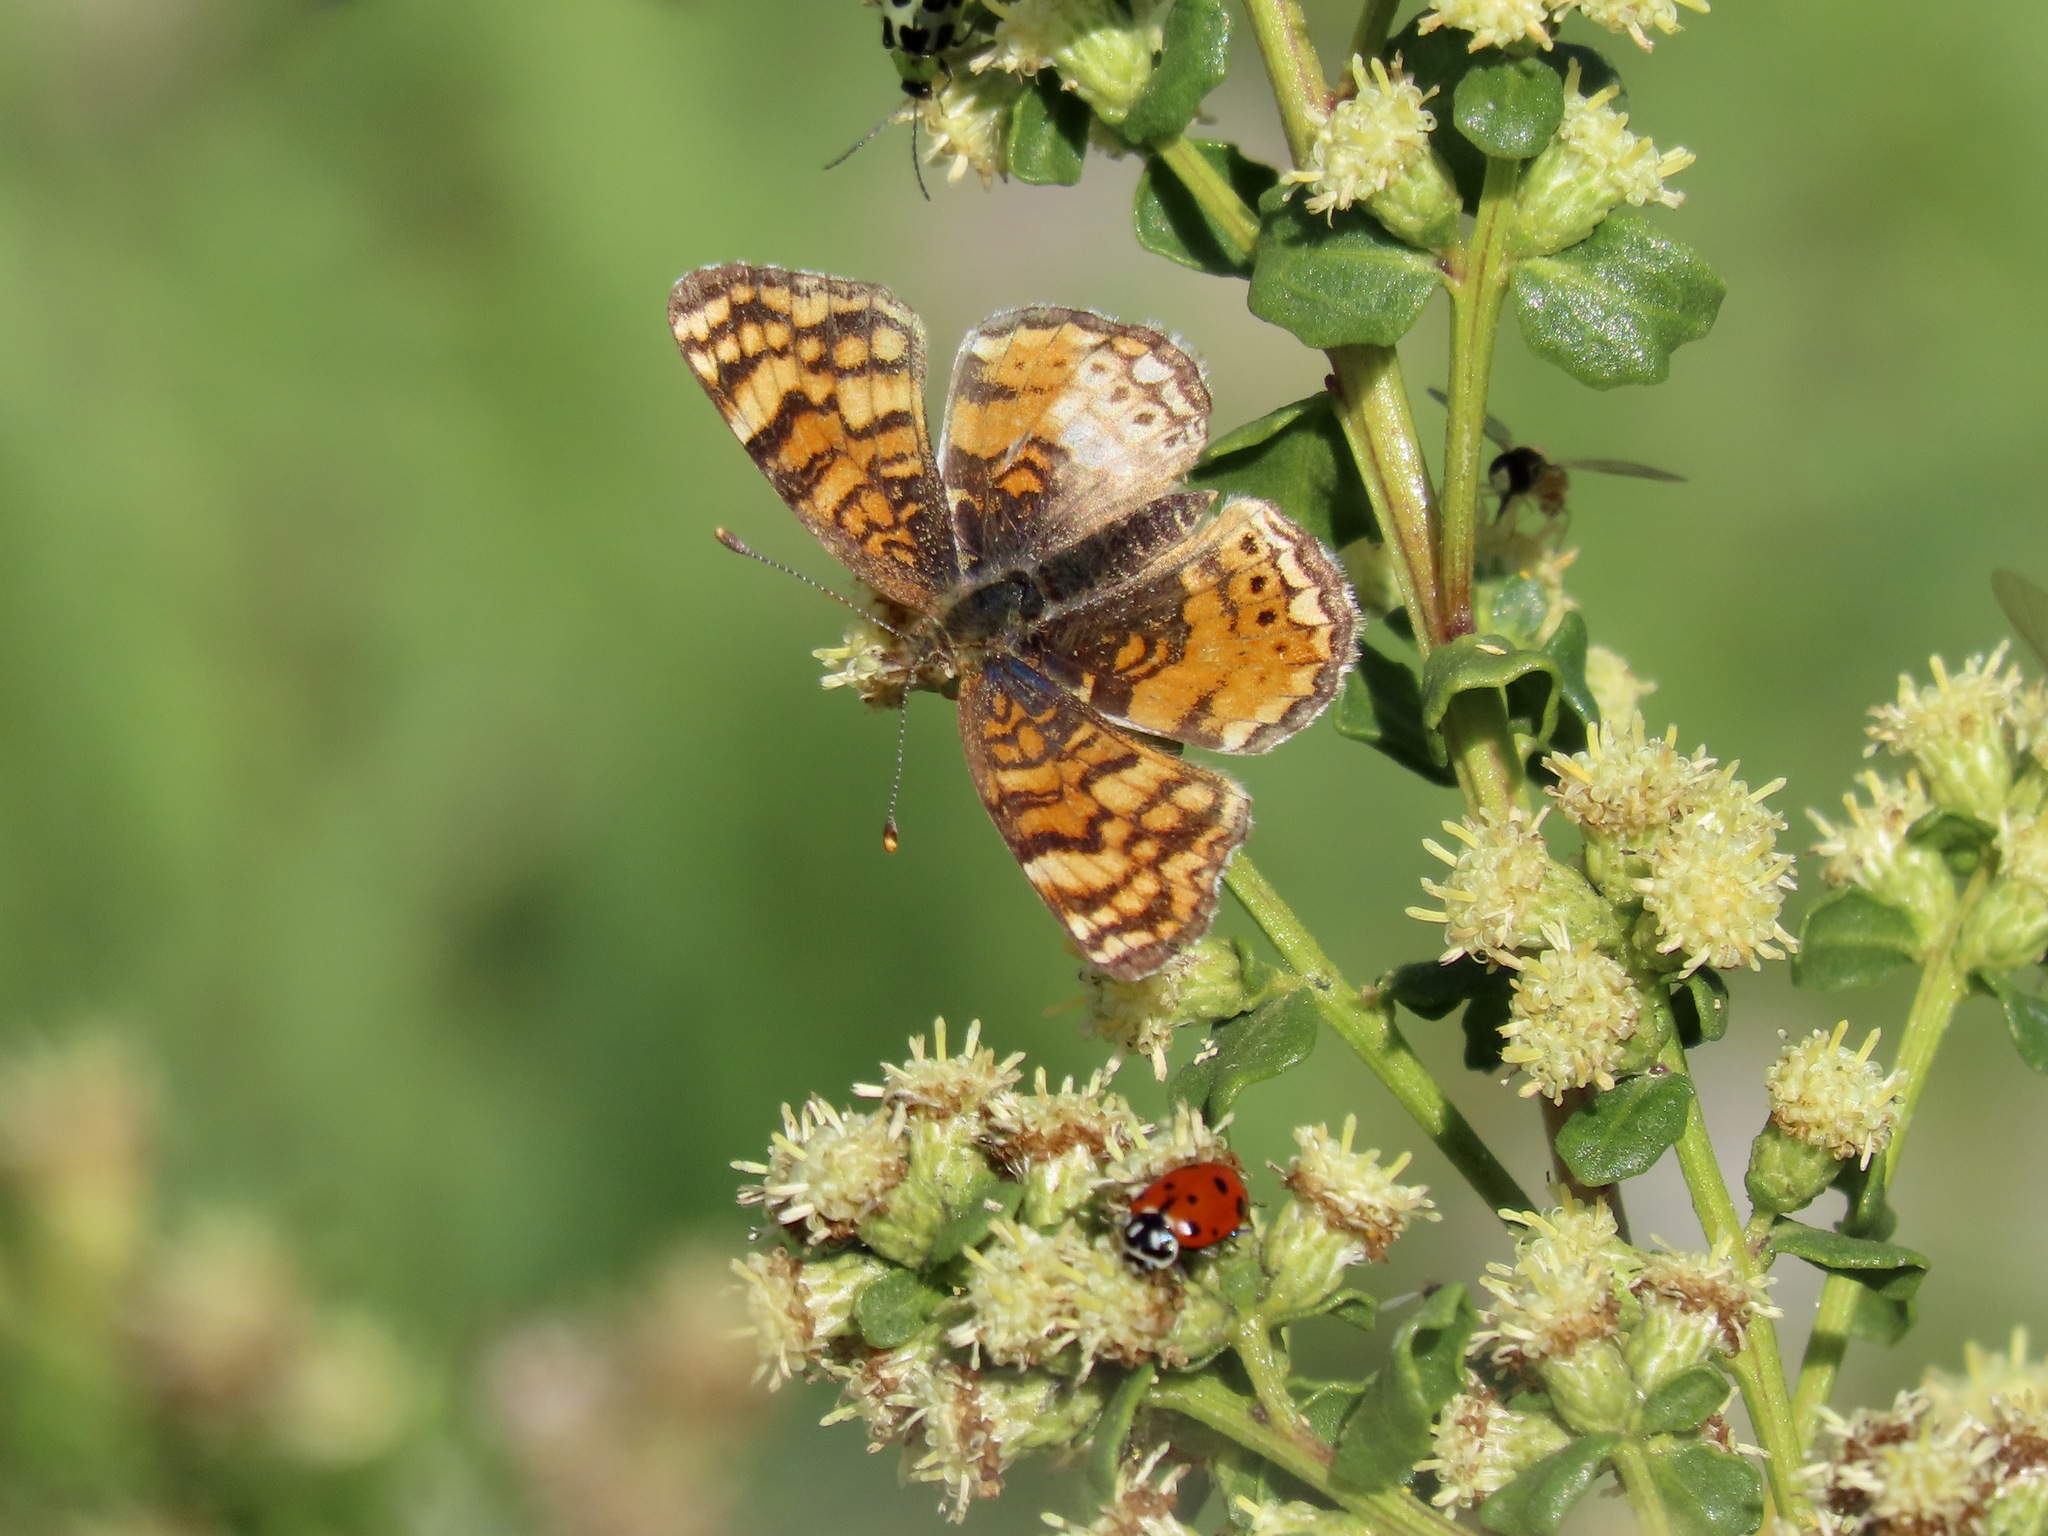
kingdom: Animalia
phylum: Arthropoda
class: Insecta
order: Lepidoptera
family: Nymphalidae
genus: Eresia
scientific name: Eresia aveyrona
